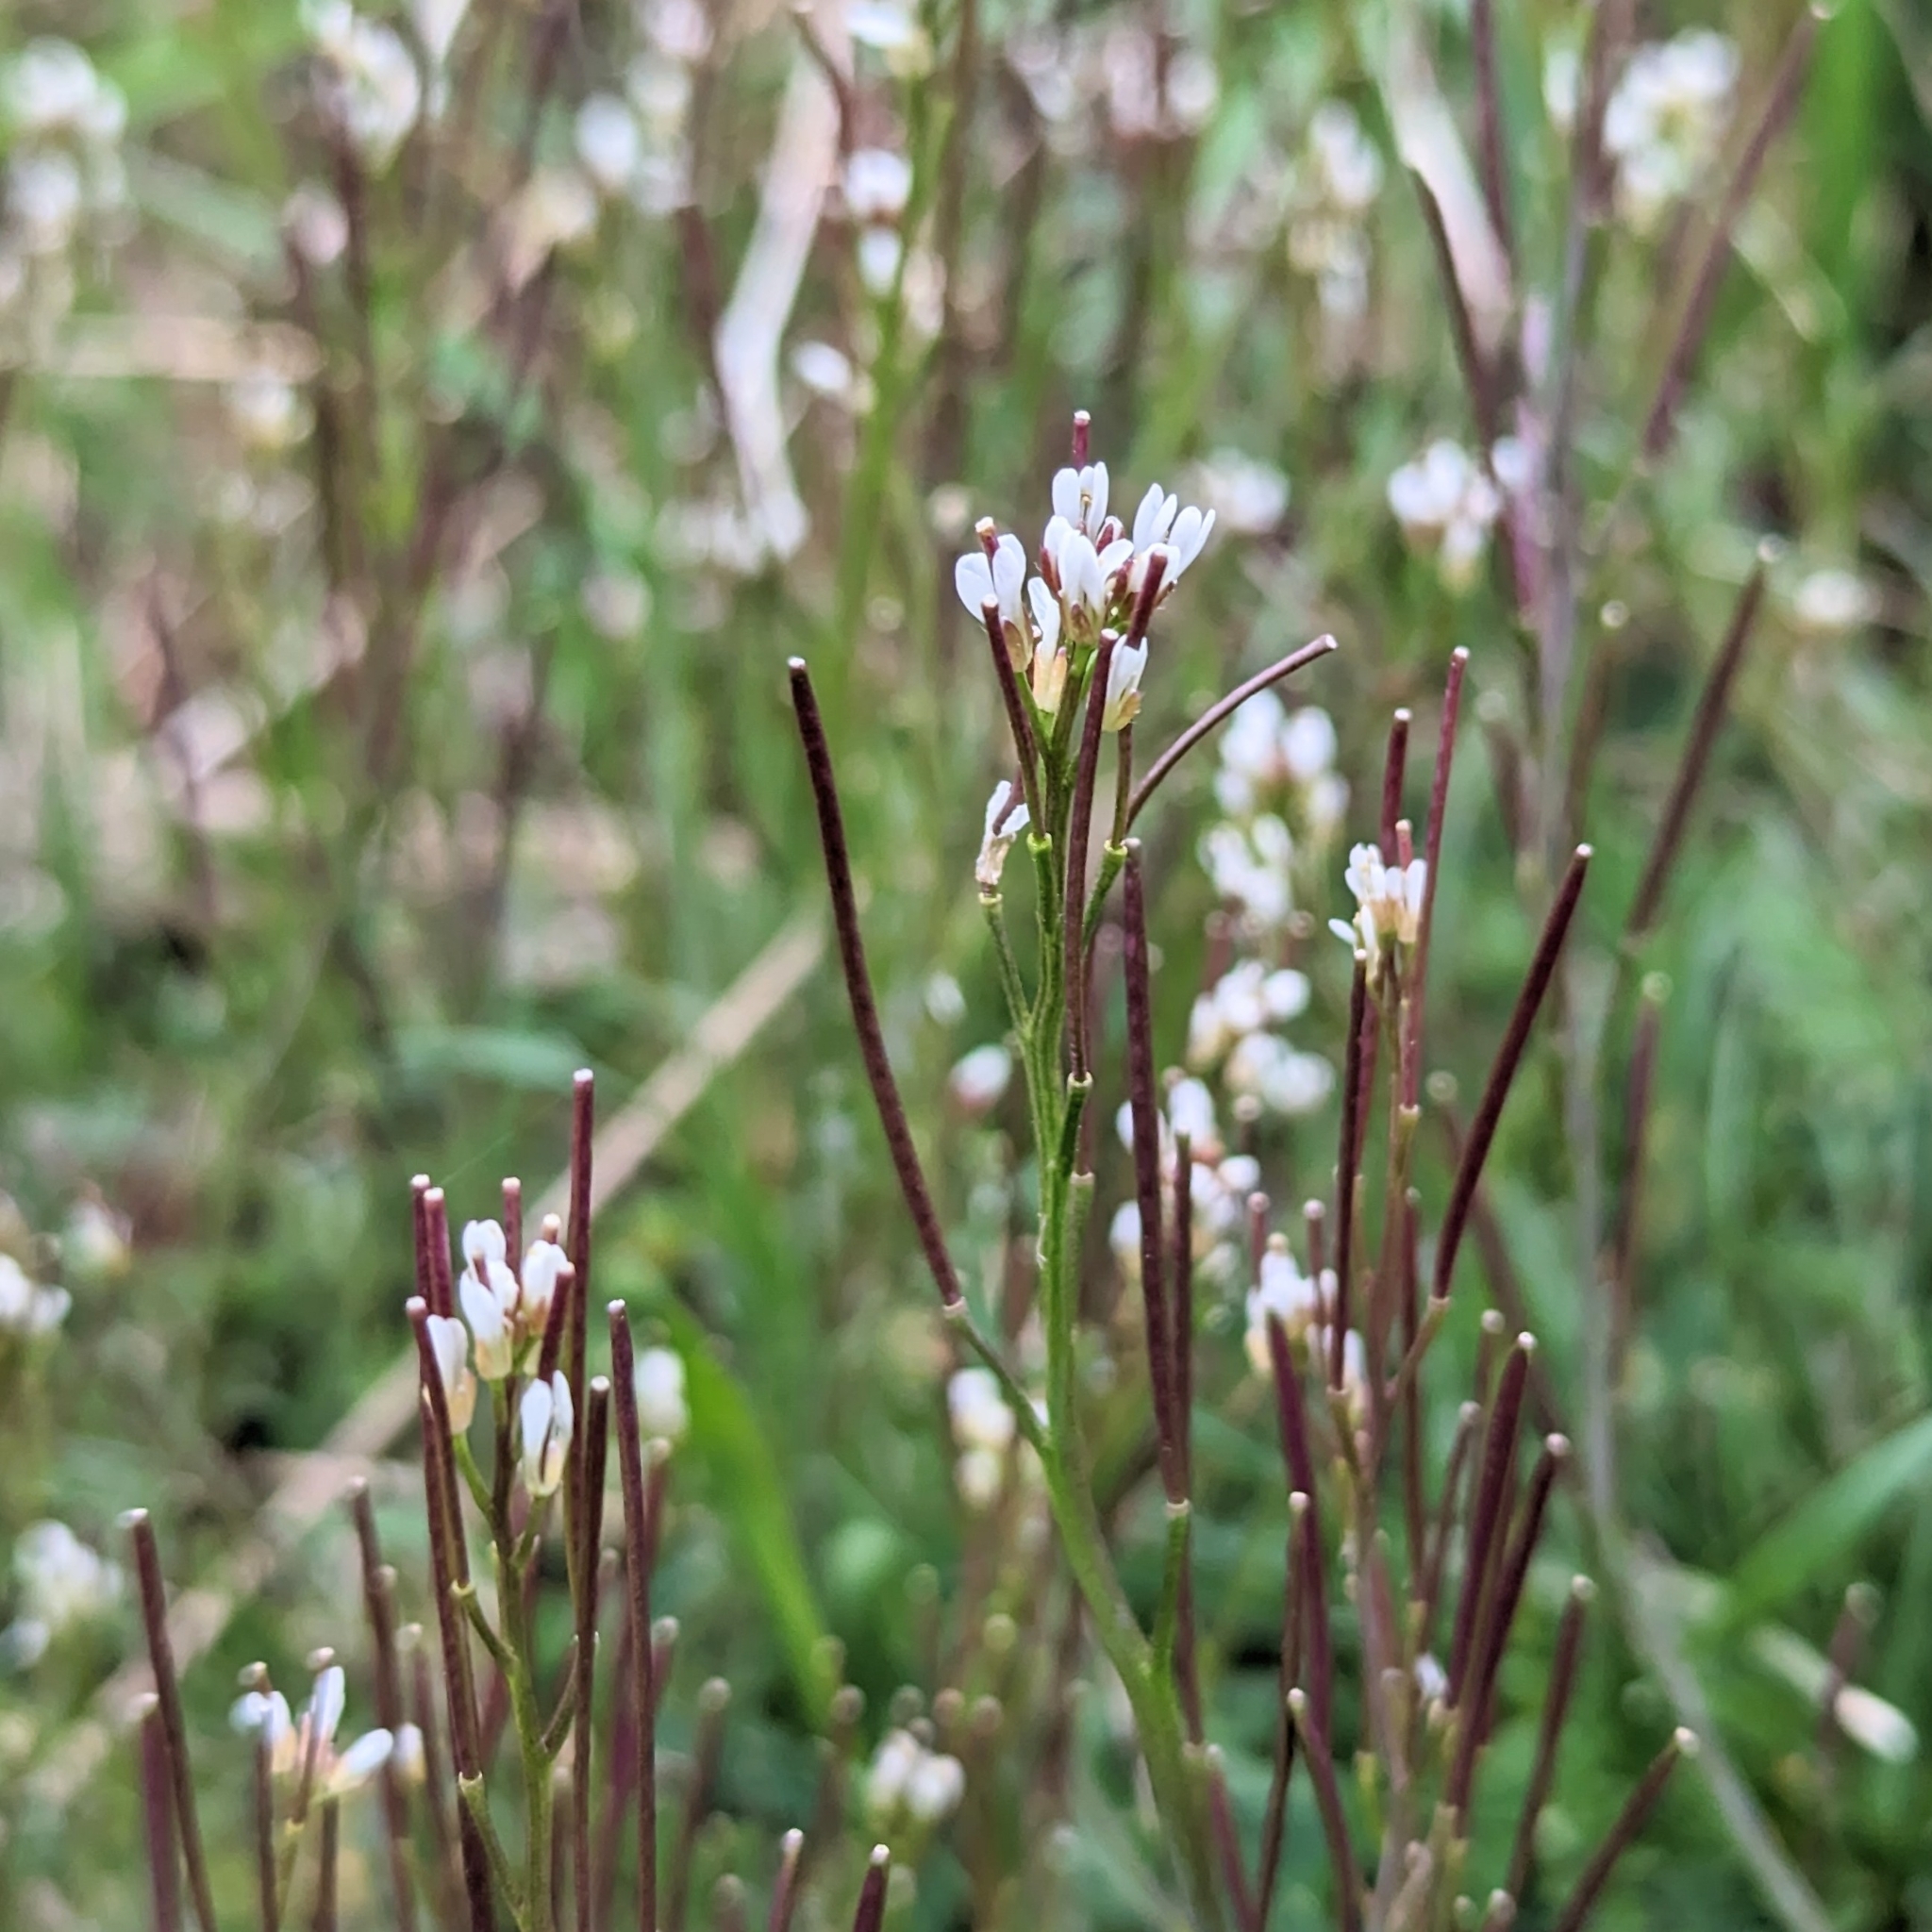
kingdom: Plantae
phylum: Tracheophyta
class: Magnoliopsida
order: Brassicales
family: Brassicaceae
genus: Cardamine
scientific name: Cardamine hirsuta
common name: Hairy bittercress
